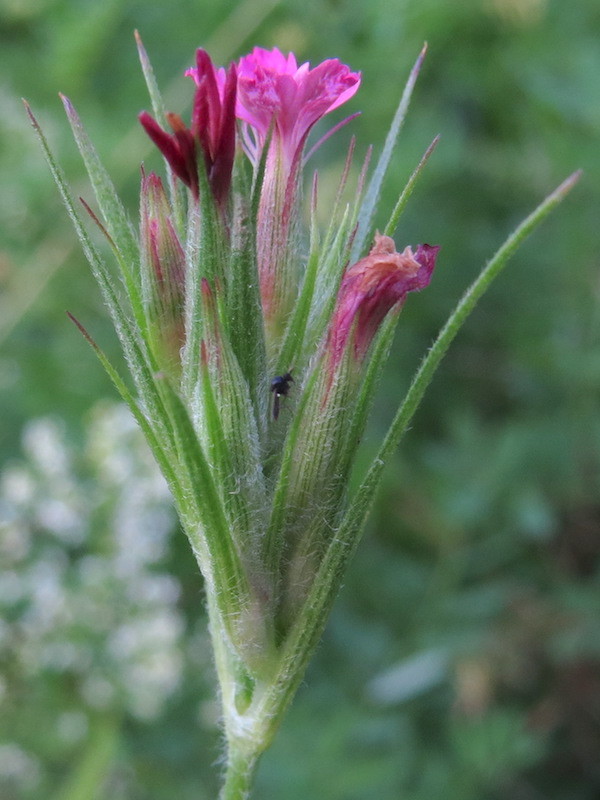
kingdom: Plantae
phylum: Tracheophyta
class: Magnoliopsida
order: Caryophyllales
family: Caryophyllaceae
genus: Dianthus
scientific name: Dianthus armeria
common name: Deptford pink
